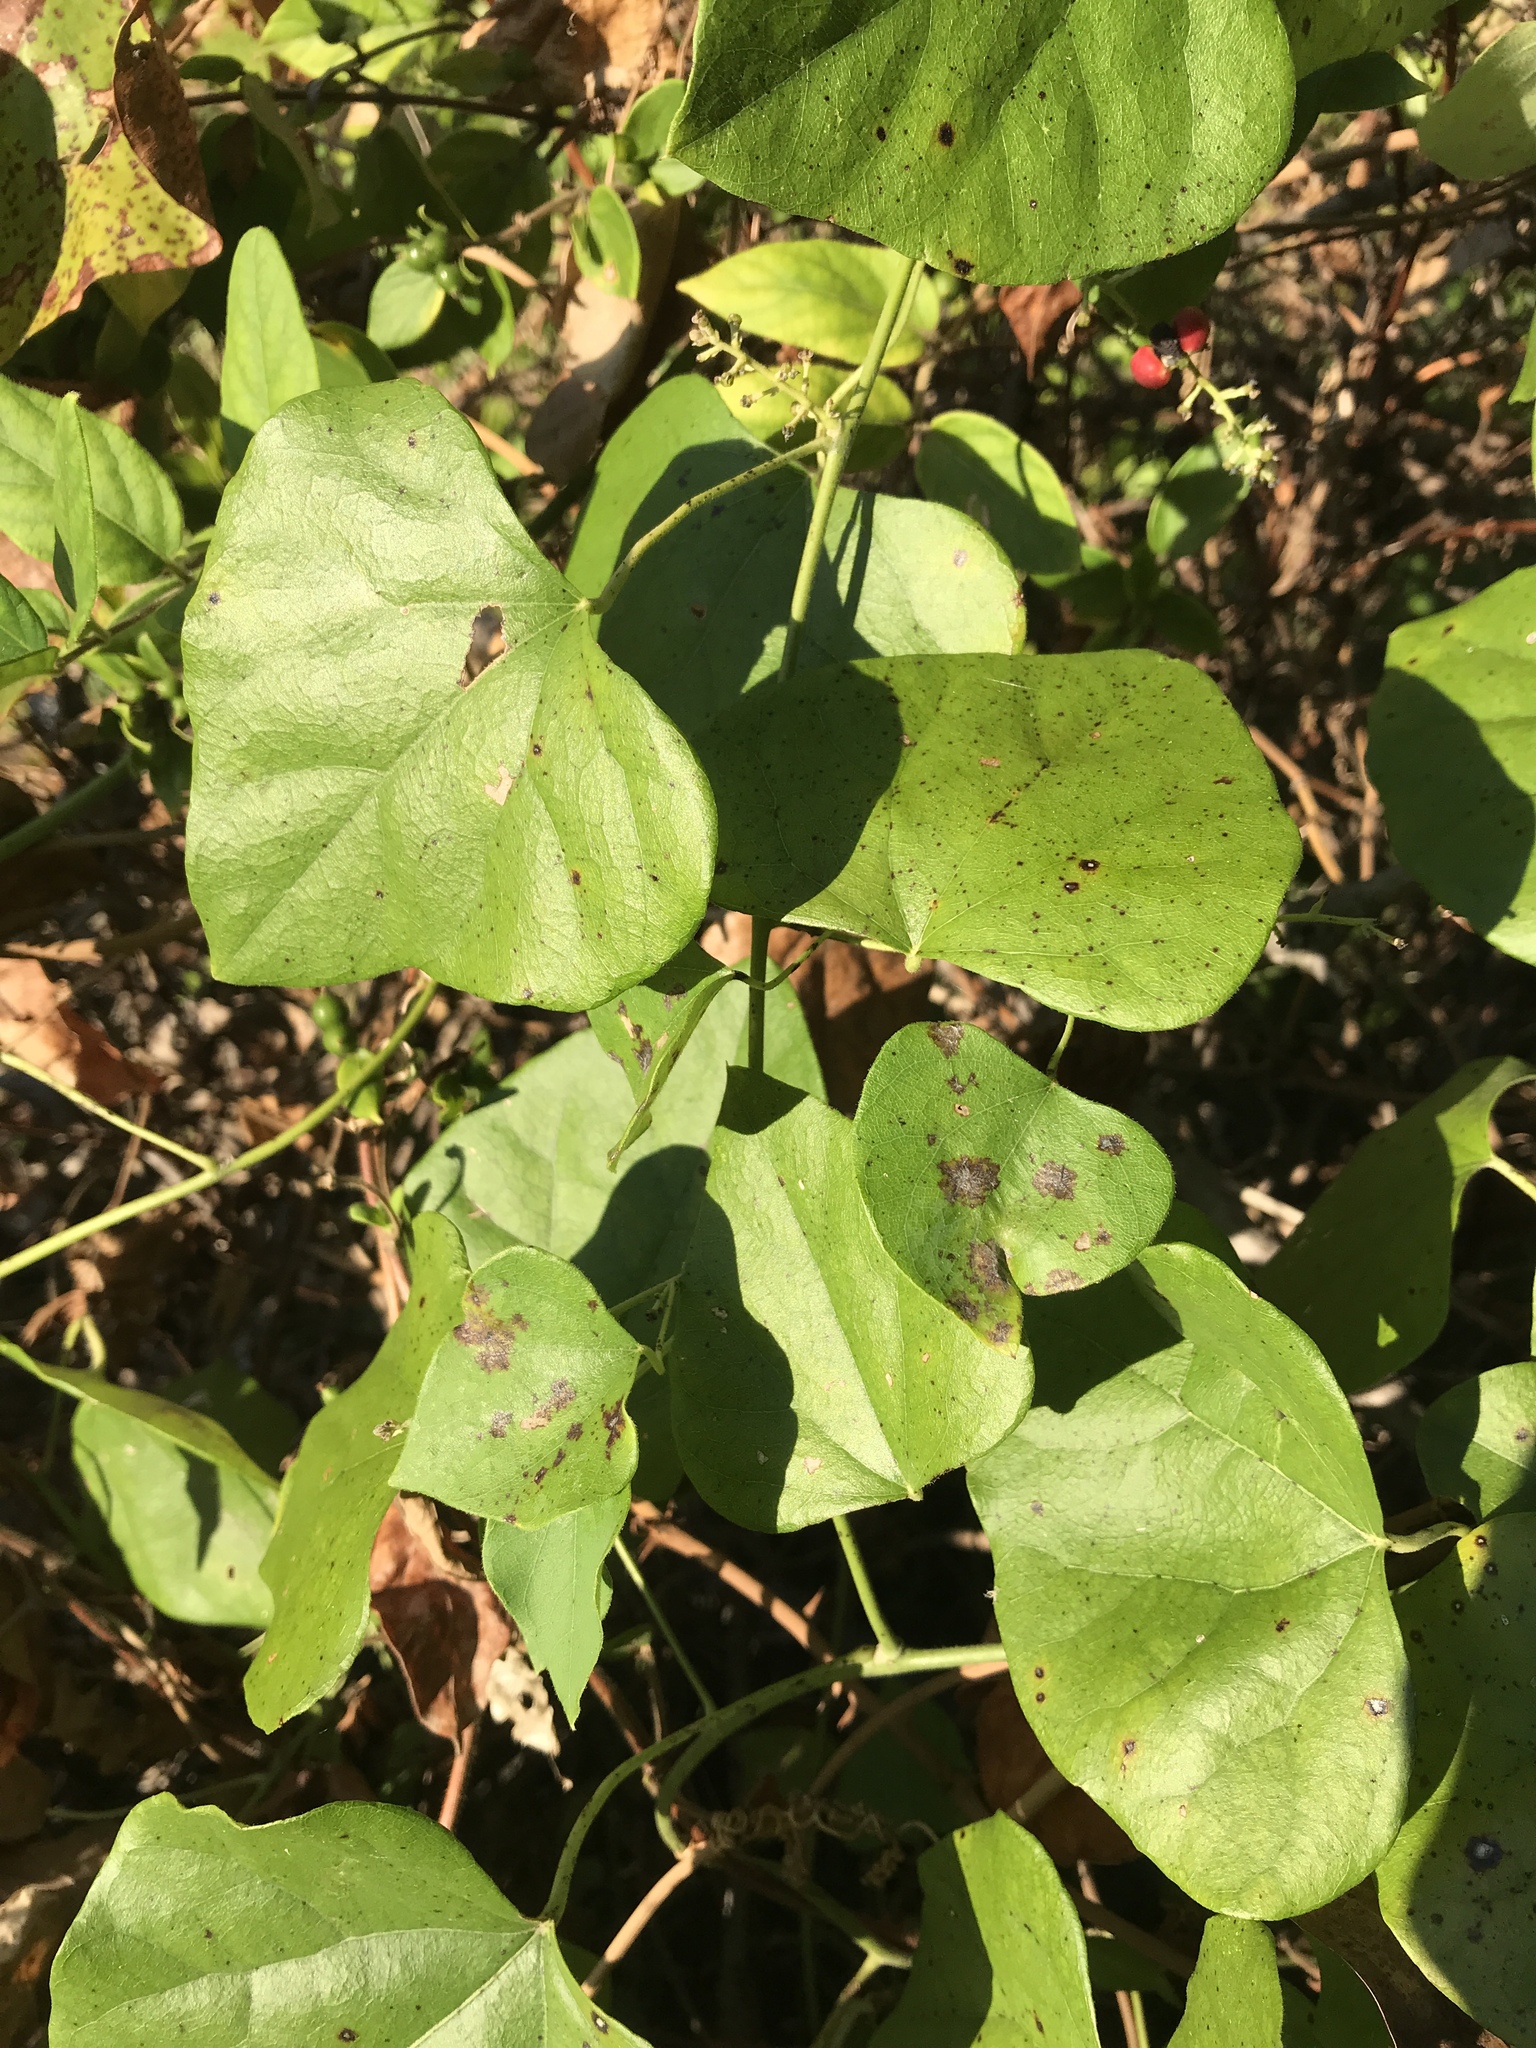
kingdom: Plantae
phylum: Tracheophyta
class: Magnoliopsida
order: Ranunculales
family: Menispermaceae
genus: Cocculus
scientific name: Cocculus carolinus
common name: Carolina moonseed
